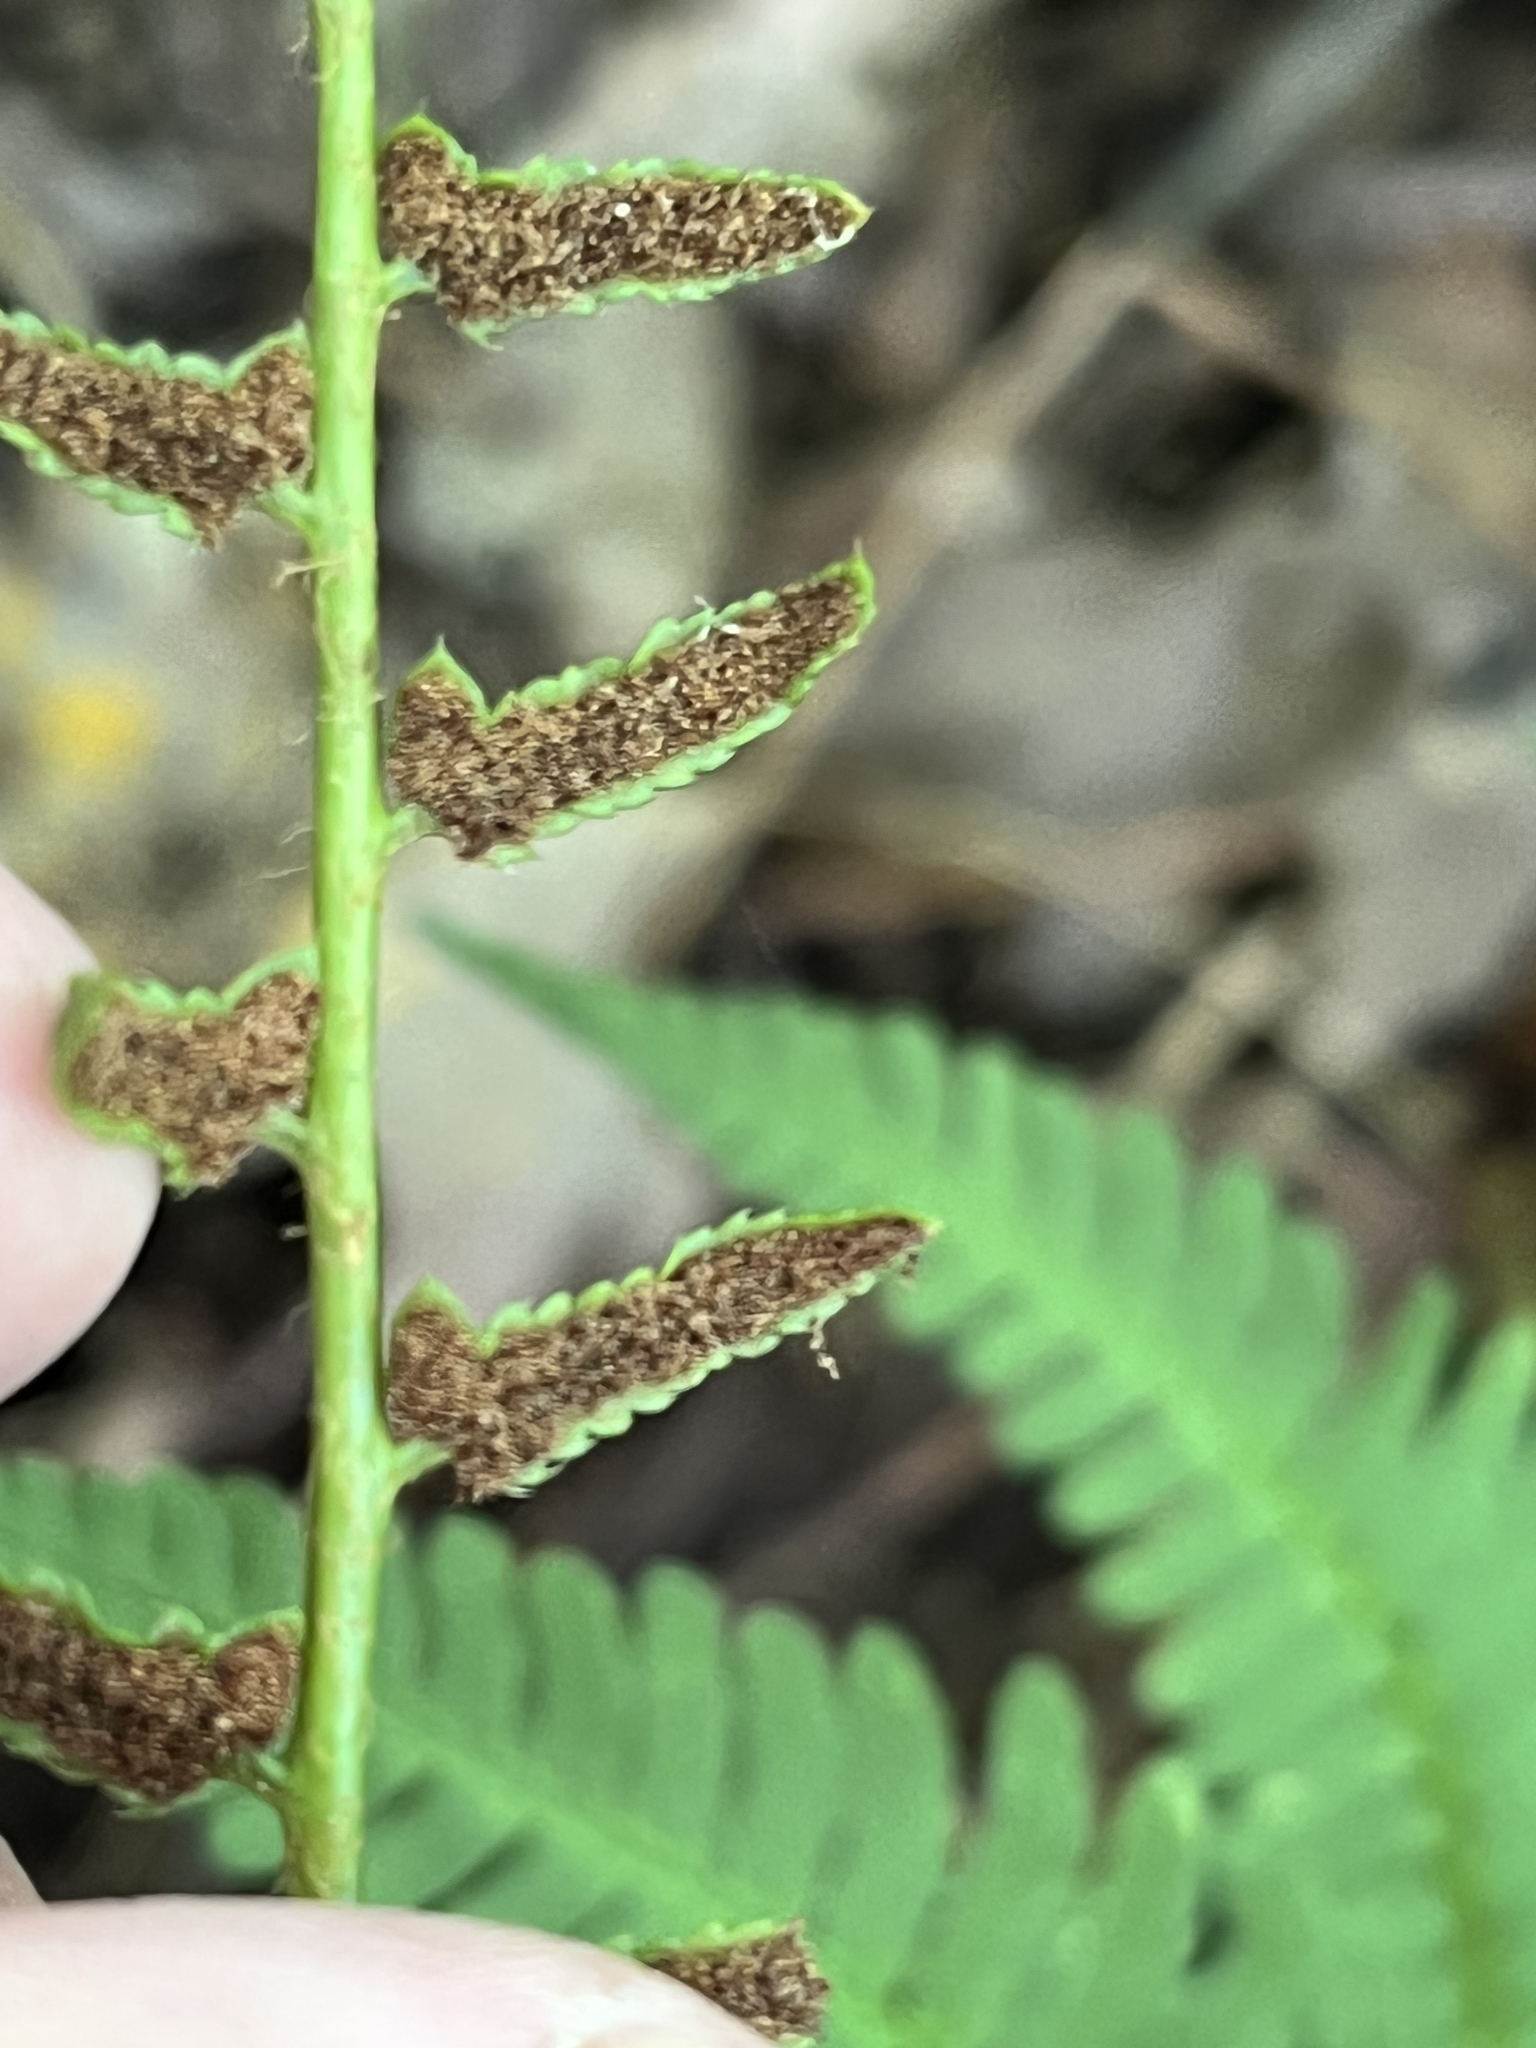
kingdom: Plantae
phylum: Tracheophyta
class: Polypodiopsida
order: Polypodiales
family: Dryopteridaceae
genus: Polystichum
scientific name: Polystichum acrostichoides
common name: Christmas fern
